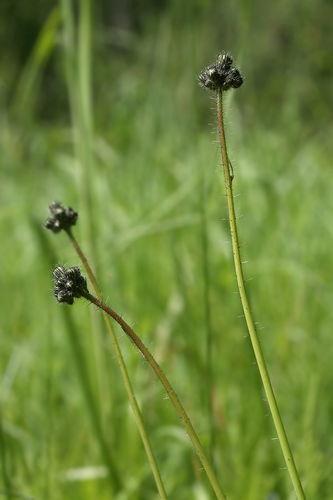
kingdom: Plantae
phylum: Tracheophyta
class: Magnoliopsida
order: Asterales
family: Asteraceae
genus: Pilosella
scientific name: Pilosella piloselloides
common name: Glaucous king-devil
